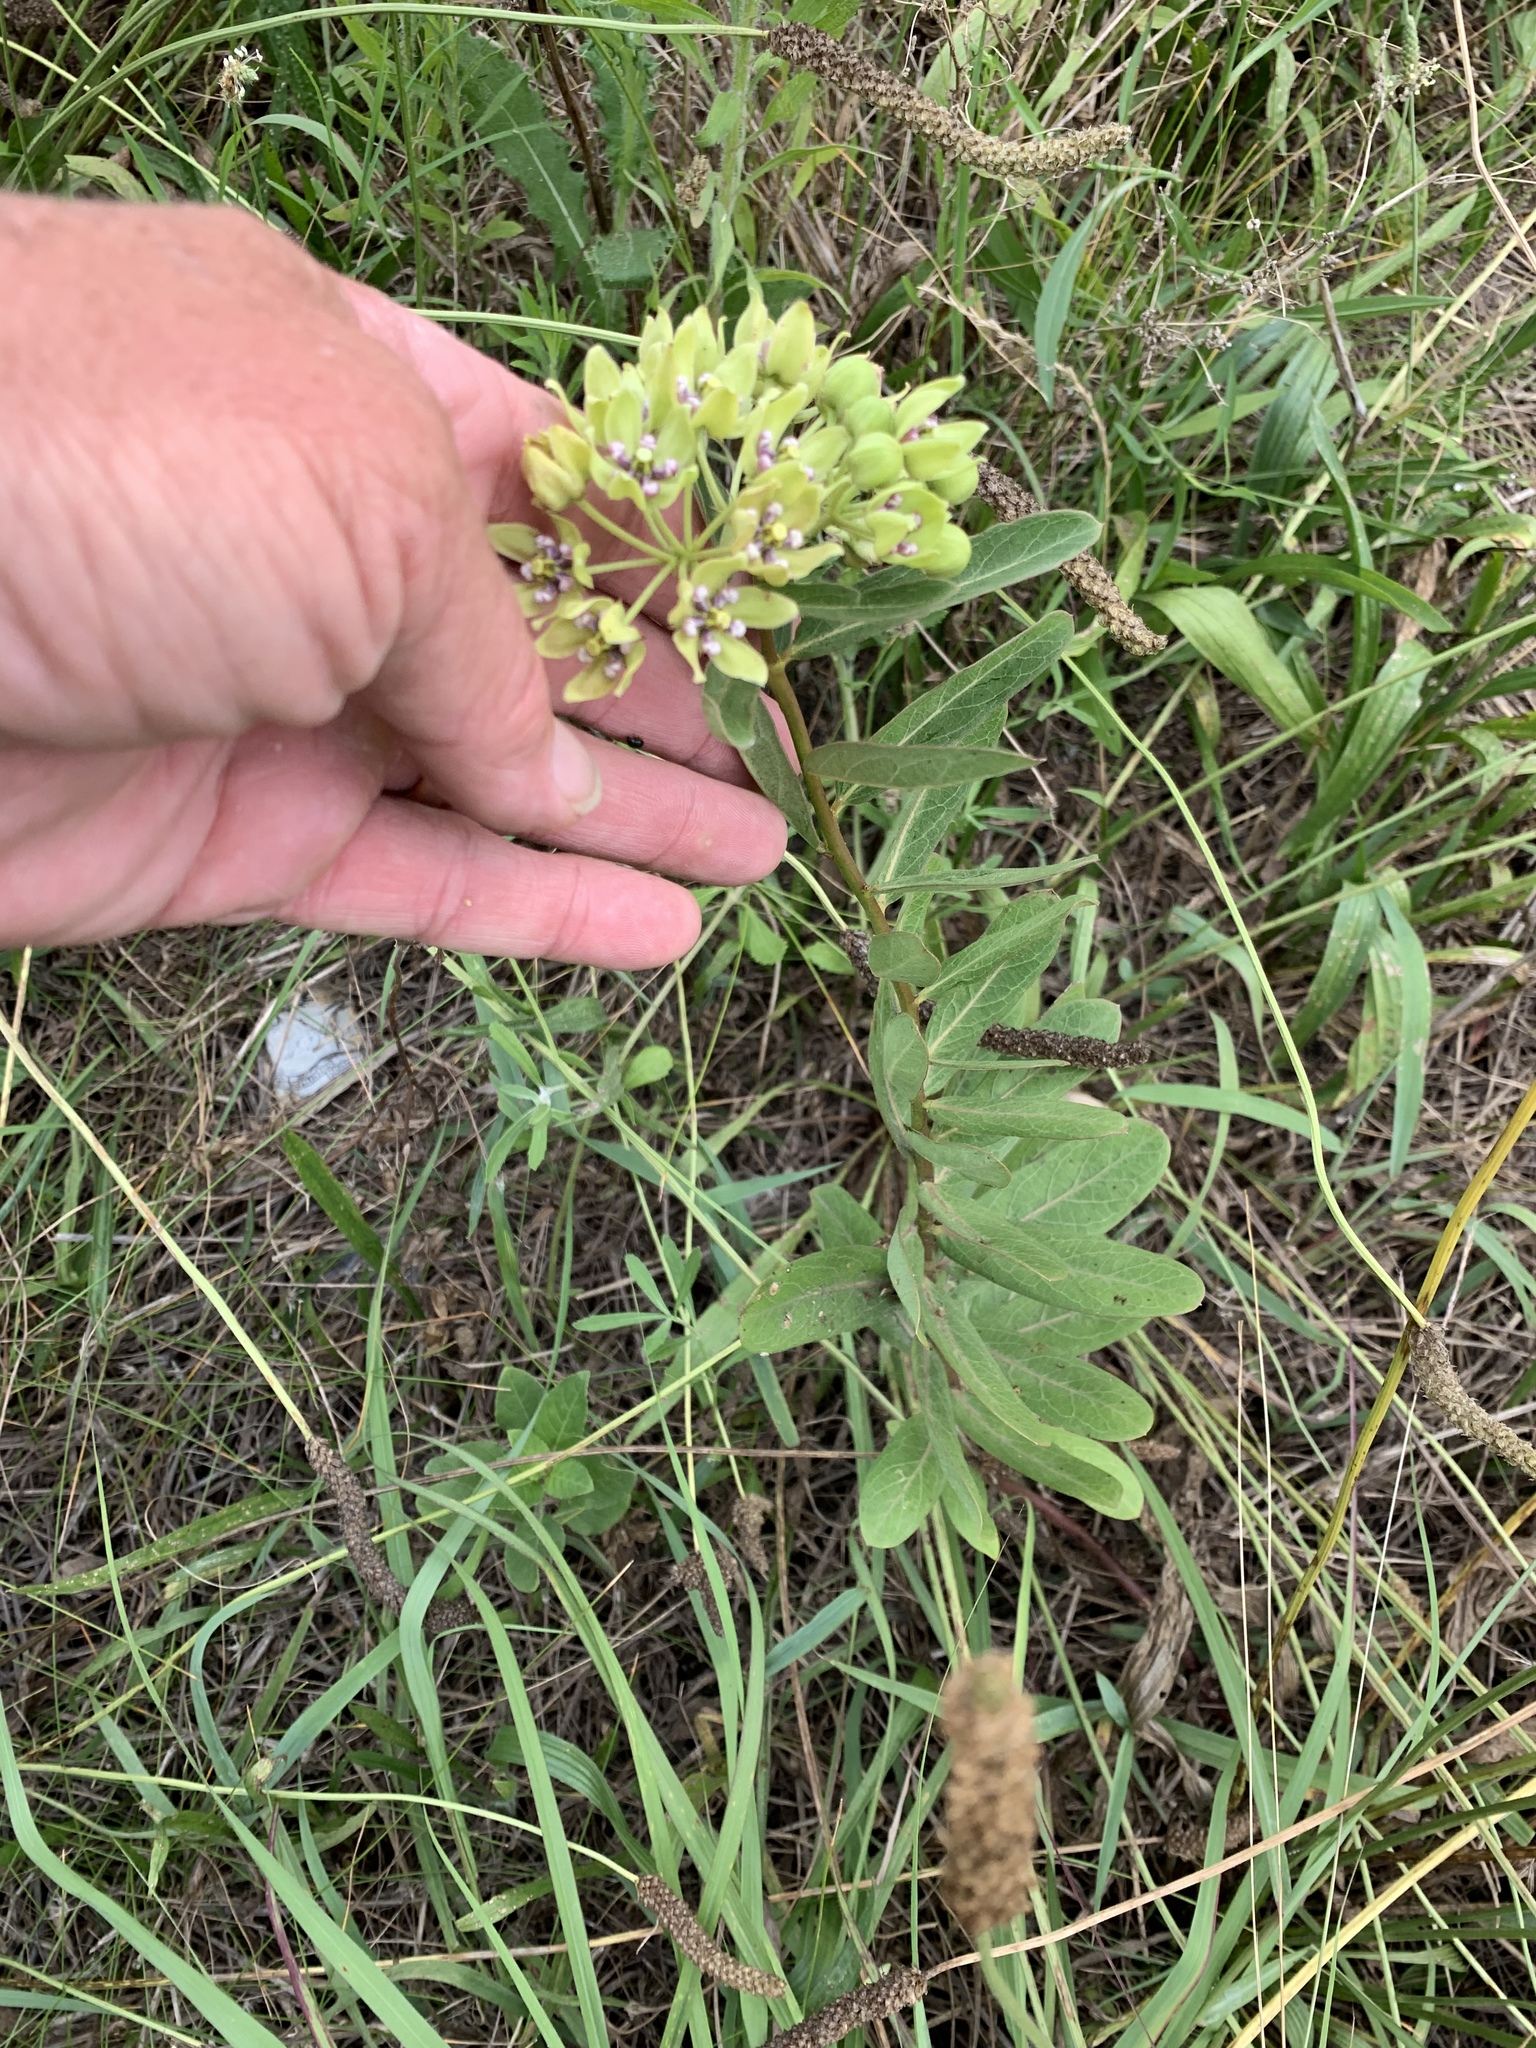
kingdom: Plantae
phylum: Tracheophyta
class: Magnoliopsida
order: Gentianales
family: Apocynaceae
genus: Asclepias
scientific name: Asclepias viridis
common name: Antelope-horns
